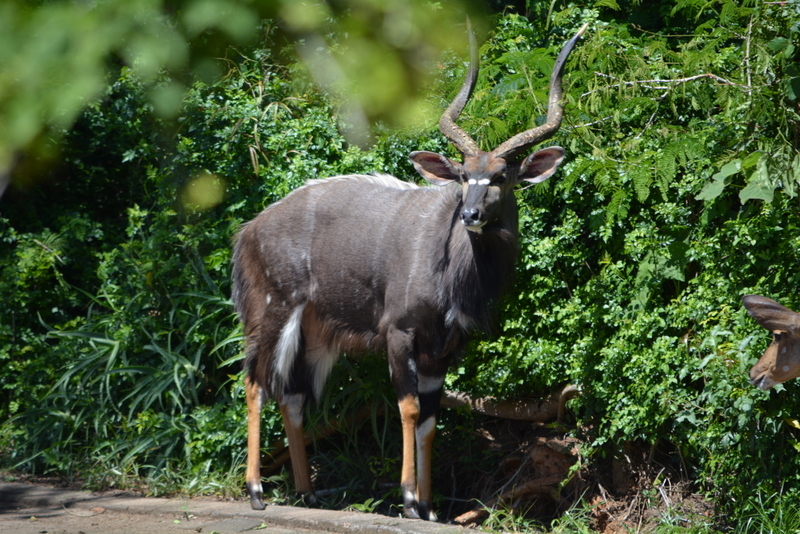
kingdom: Animalia
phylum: Chordata
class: Mammalia
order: Artiodactyla
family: Bovidae
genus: Tragelaphus
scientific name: Tragelaphus angasii
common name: Nyala
